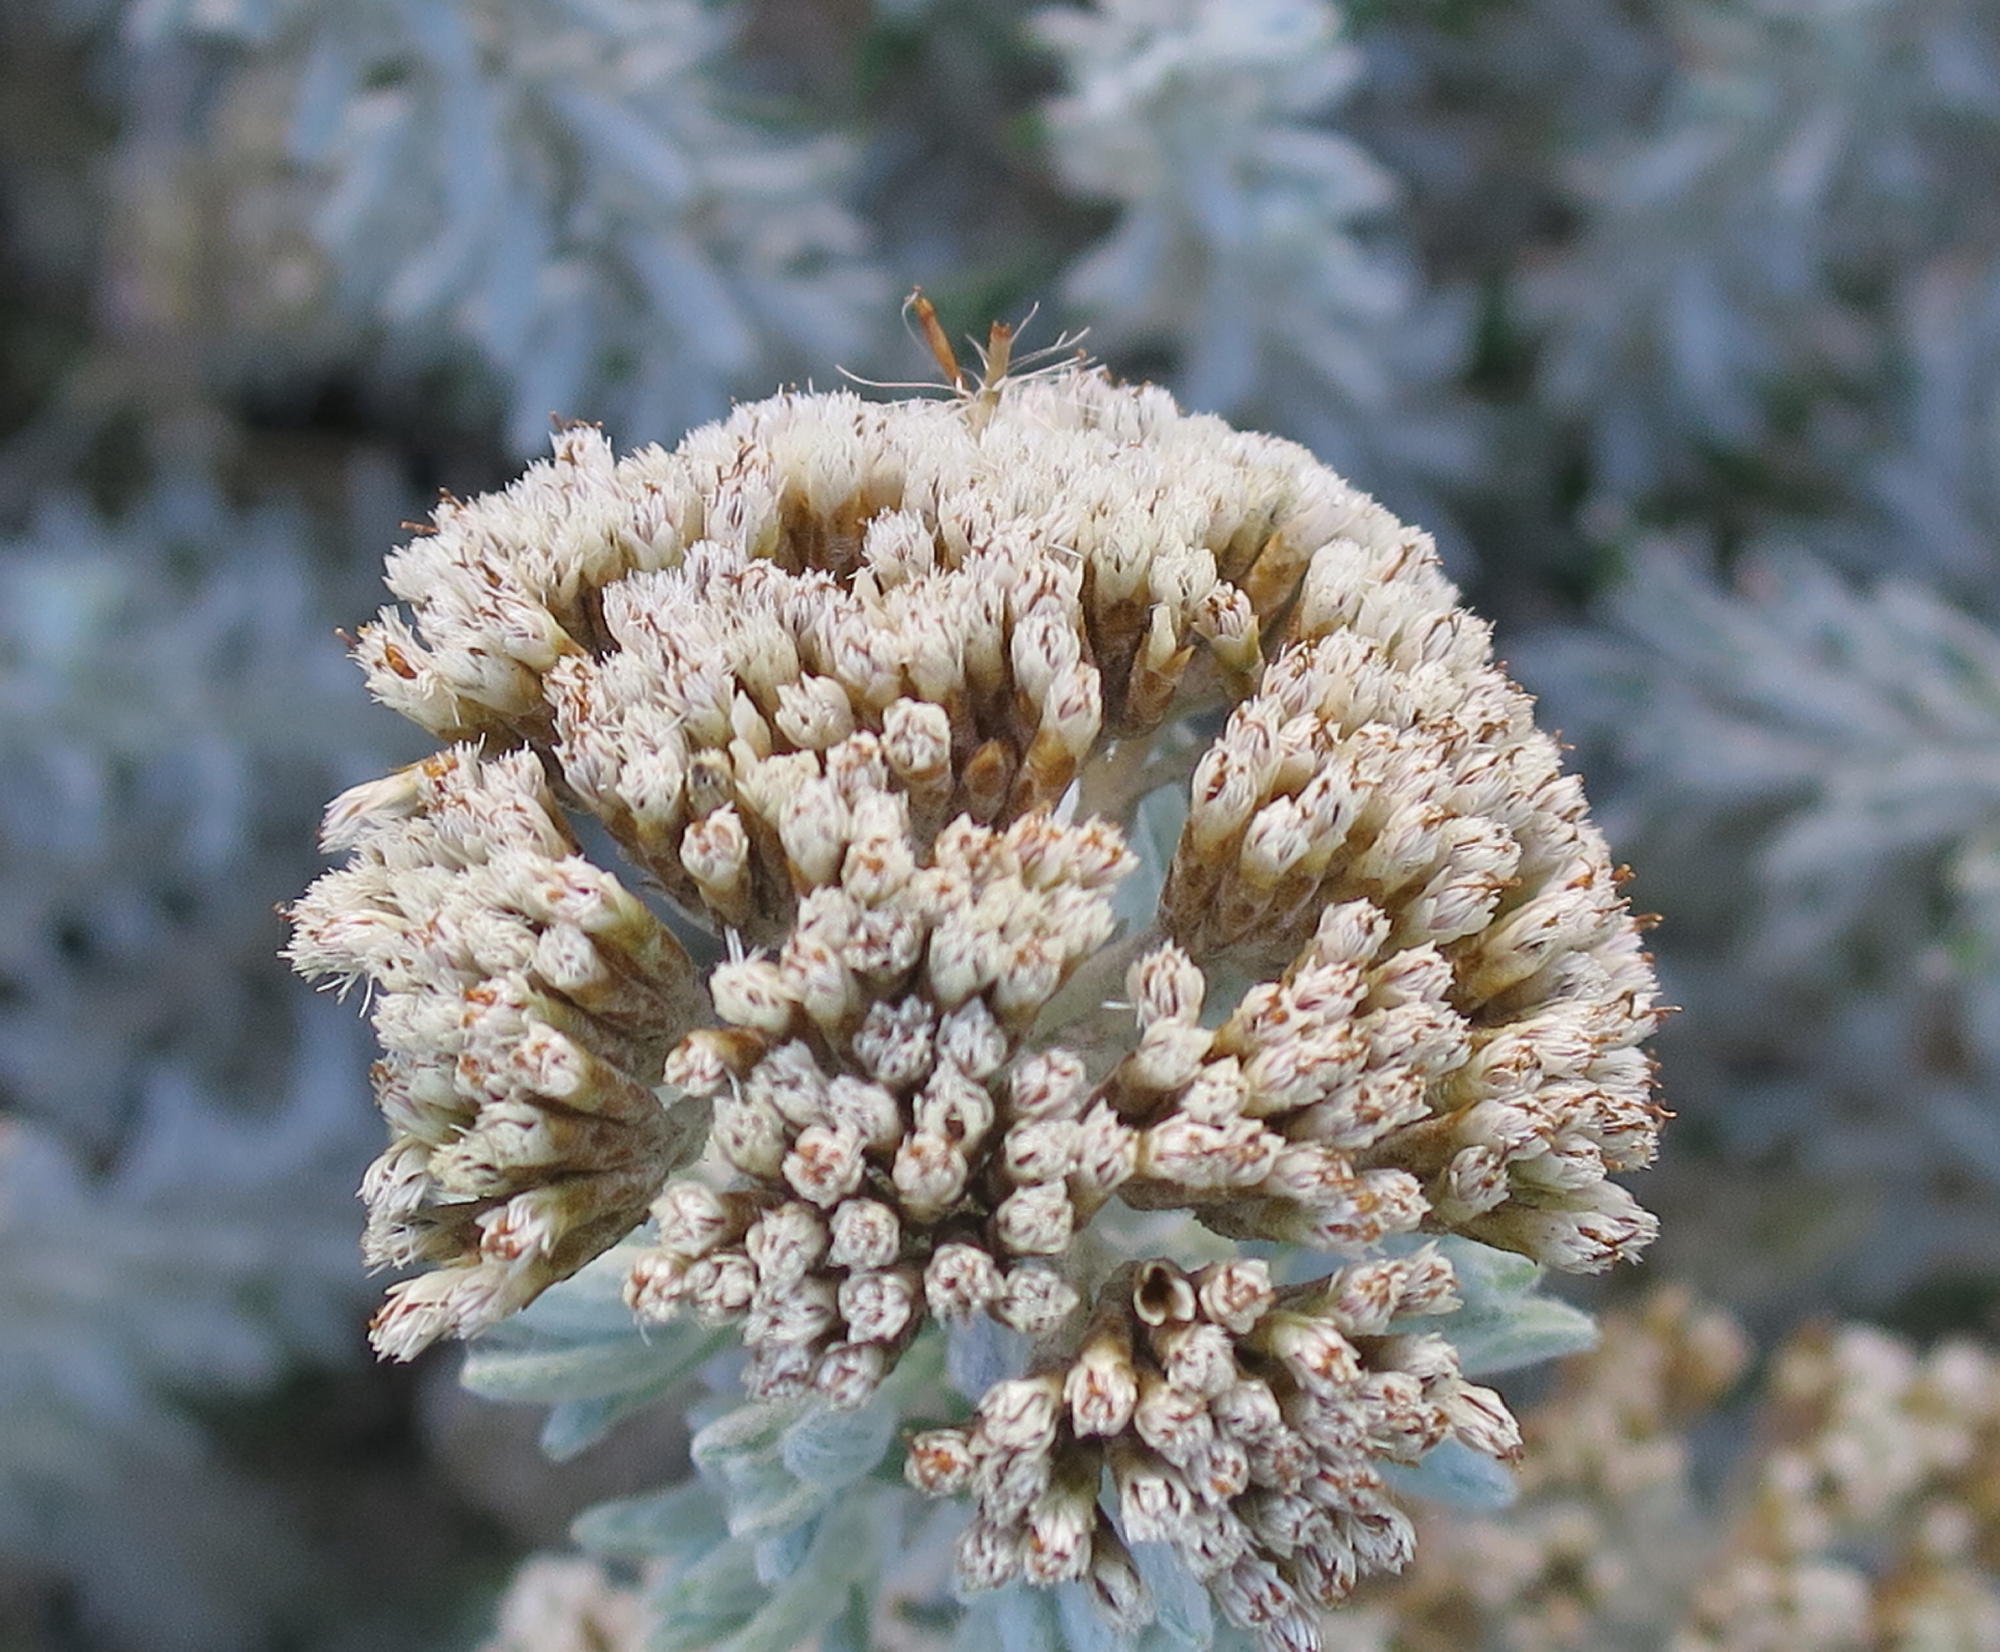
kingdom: Plantae
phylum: Tracheophyta
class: Magnoliopsida
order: Asterales
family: Asteraceae
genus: Metalasia
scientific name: Metalasia densa
